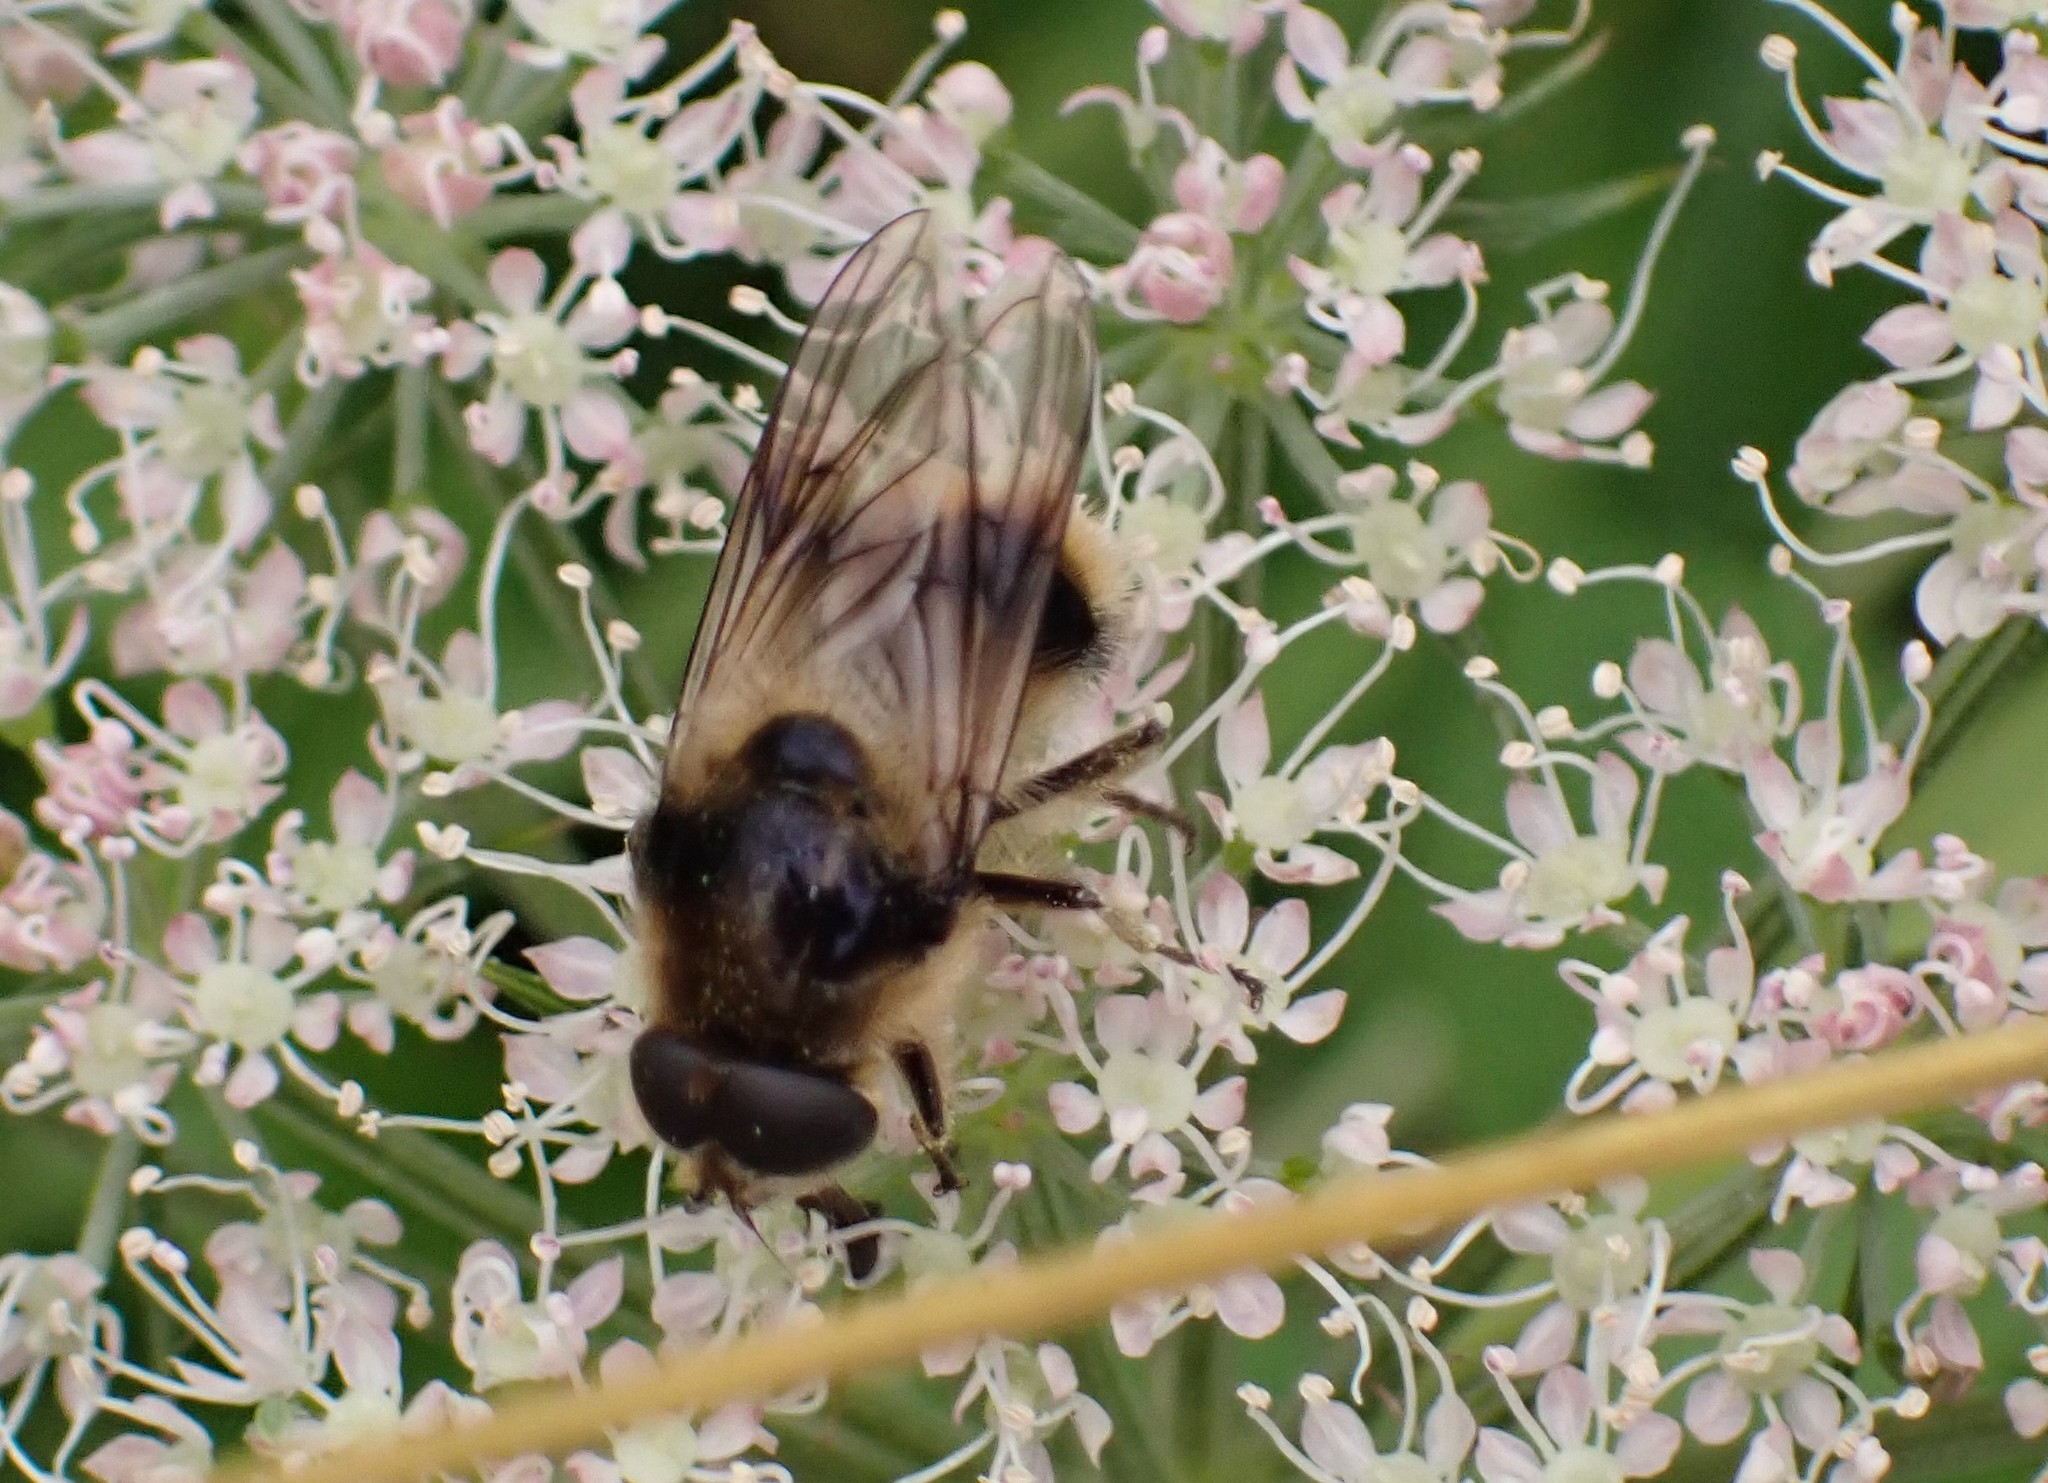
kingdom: Animalia
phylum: Arthropoda
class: Insecta
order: Diptera
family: Syrphidae
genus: Cheilosia
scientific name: Cheilosia illustrata
